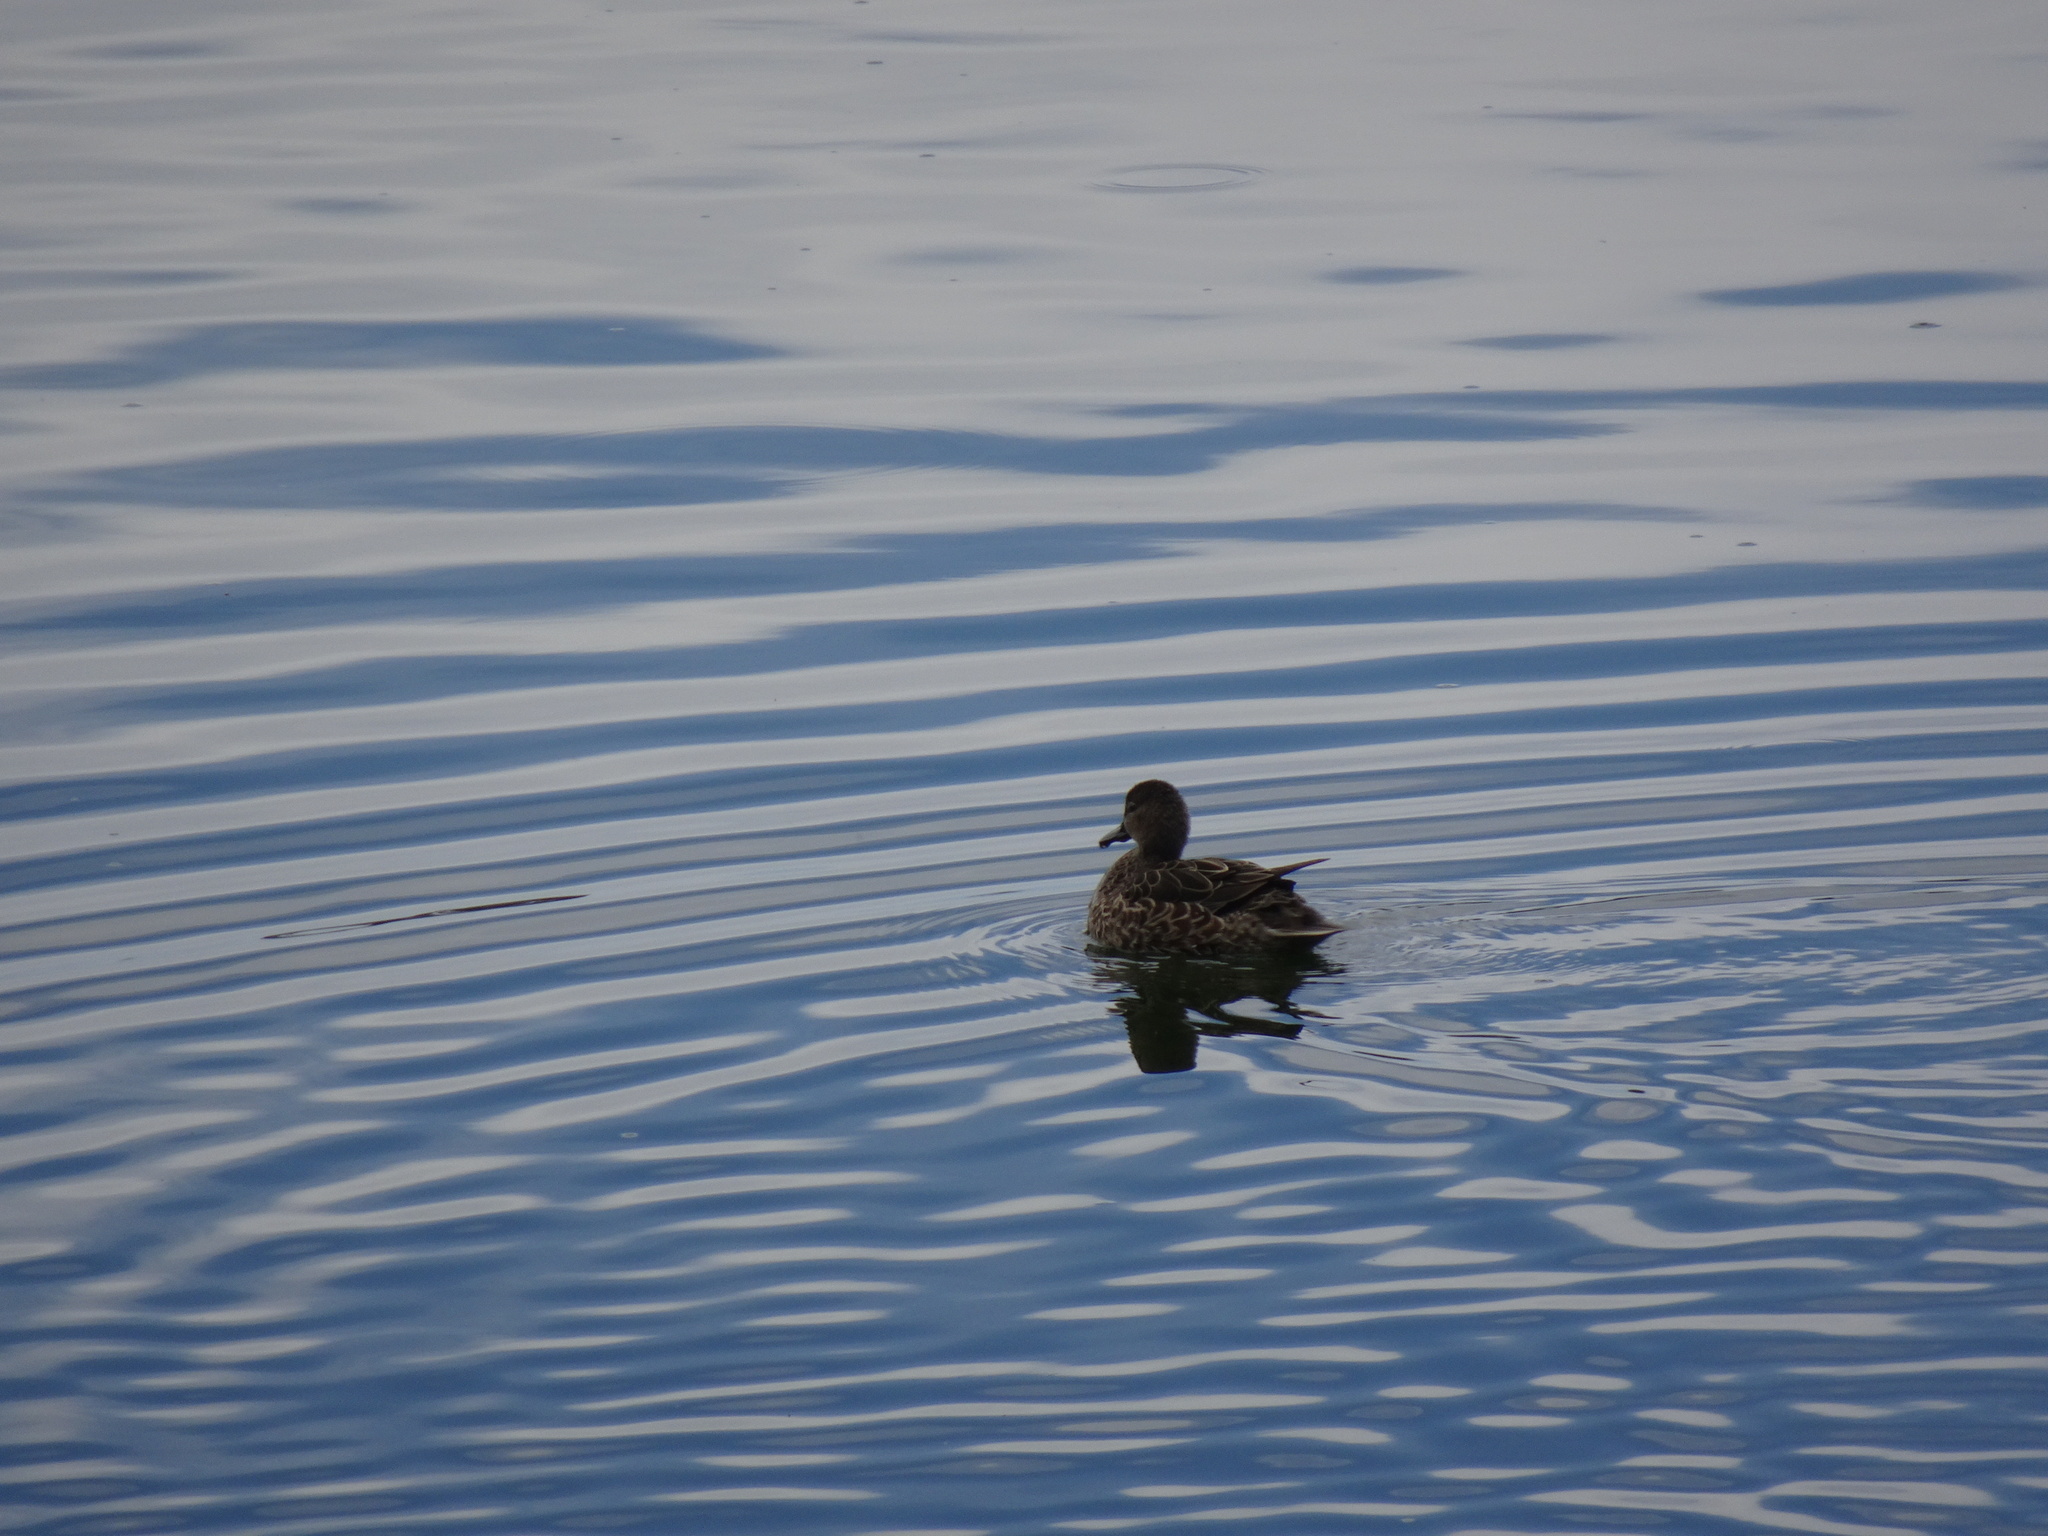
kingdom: Animalia
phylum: Chordata
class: Aves
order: Anseriformes
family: Anatidae
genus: Spatula
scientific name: Spatula discors
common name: Blue-winged teal
